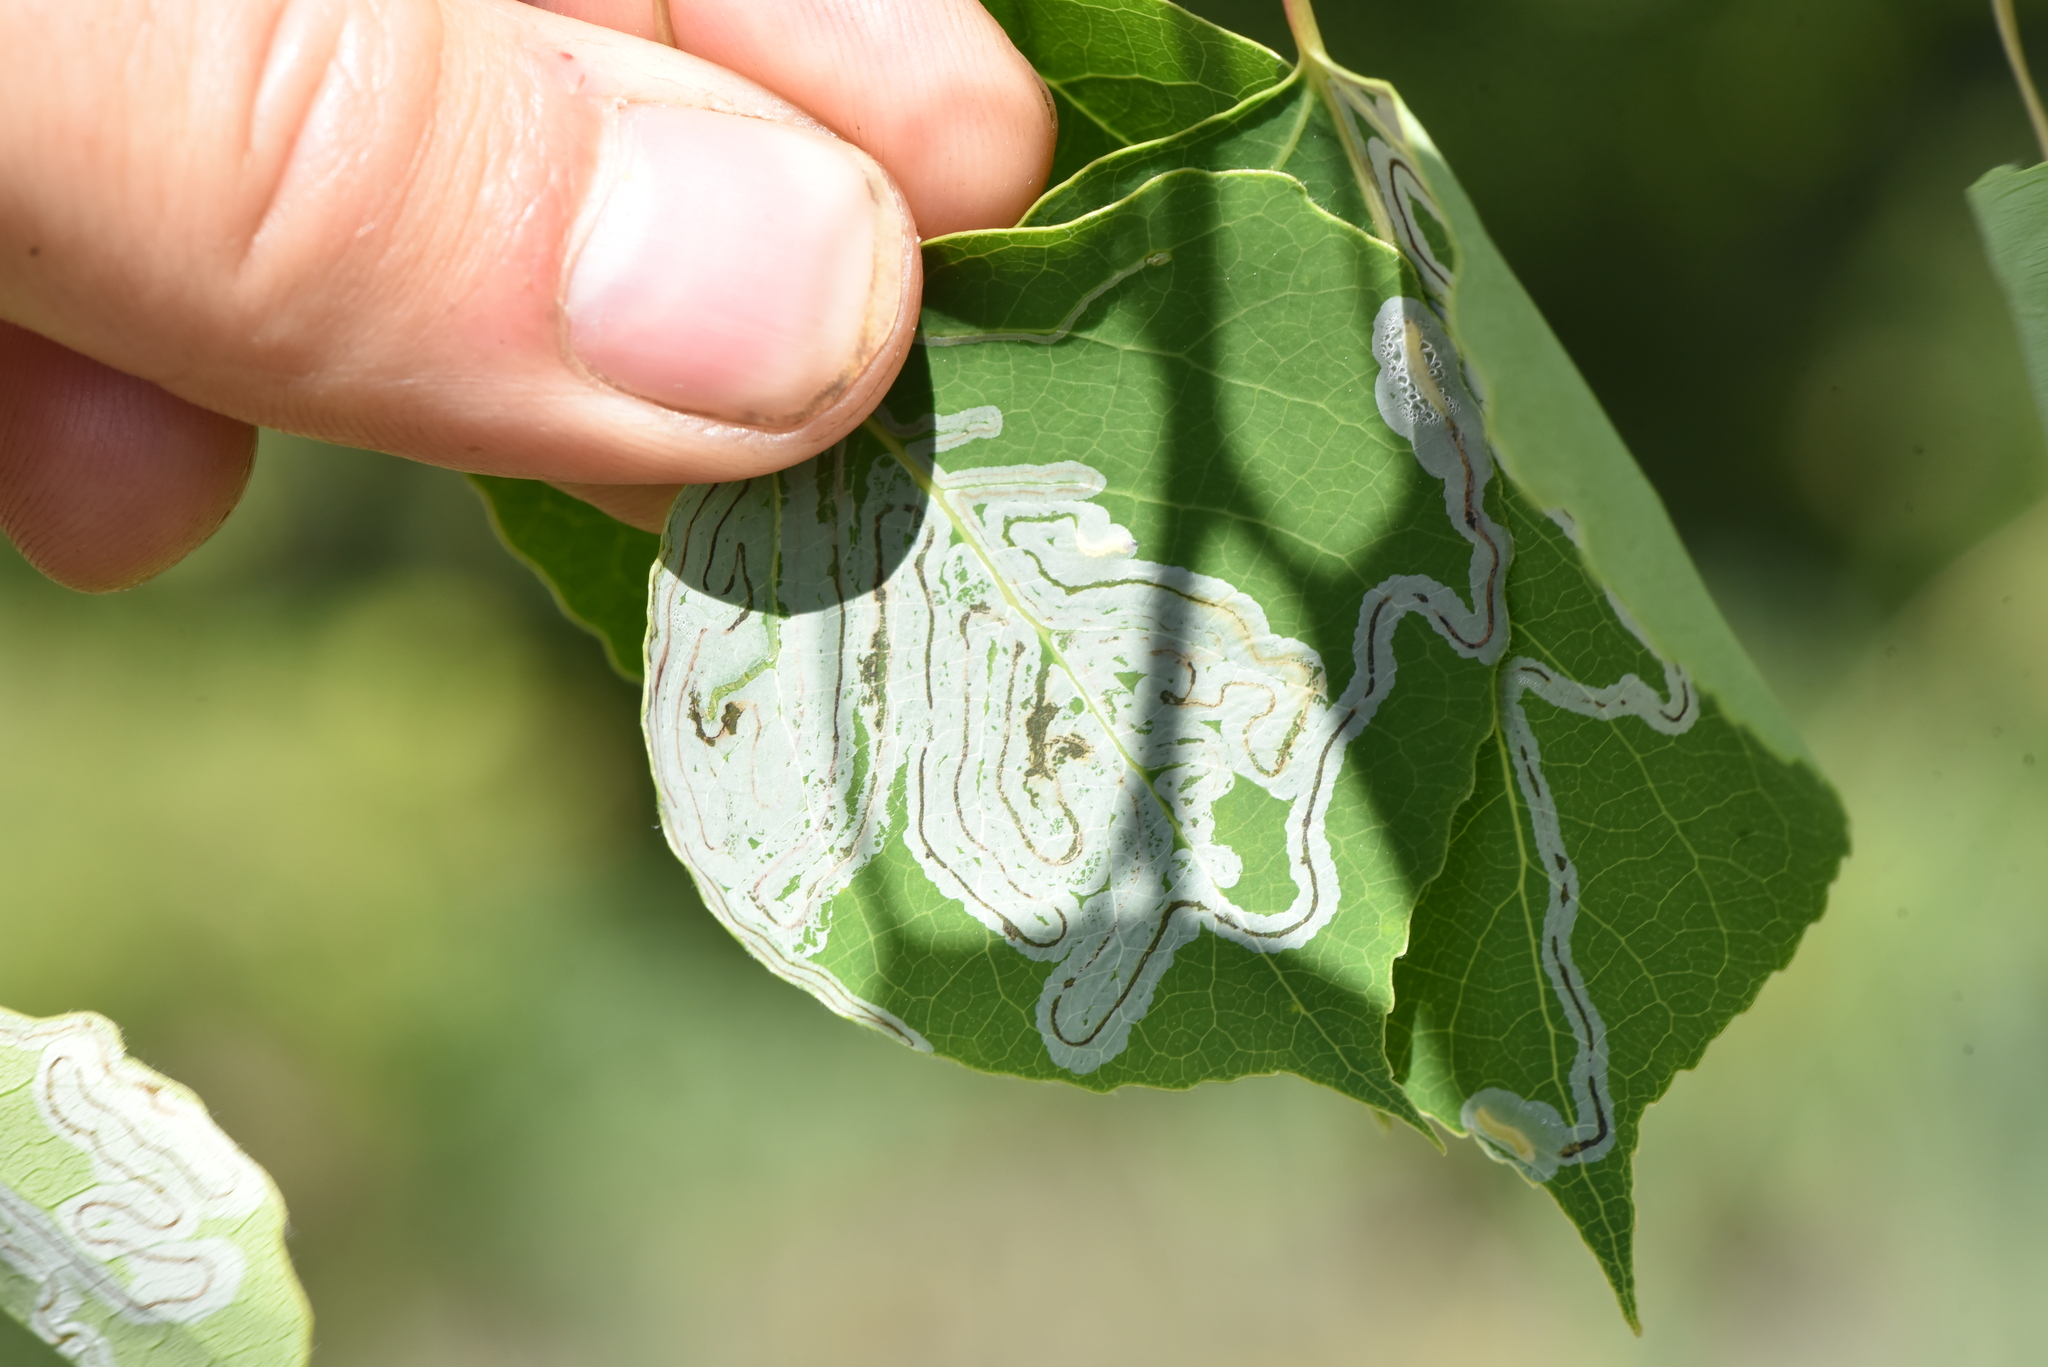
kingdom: Animalia
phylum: Arthropoda
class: Insecta
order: Lepidoptera
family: Gracillariidae
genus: Phyllocnistis
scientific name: Phyllocnistis populiella
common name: Aspen serpentine leafminer moth
